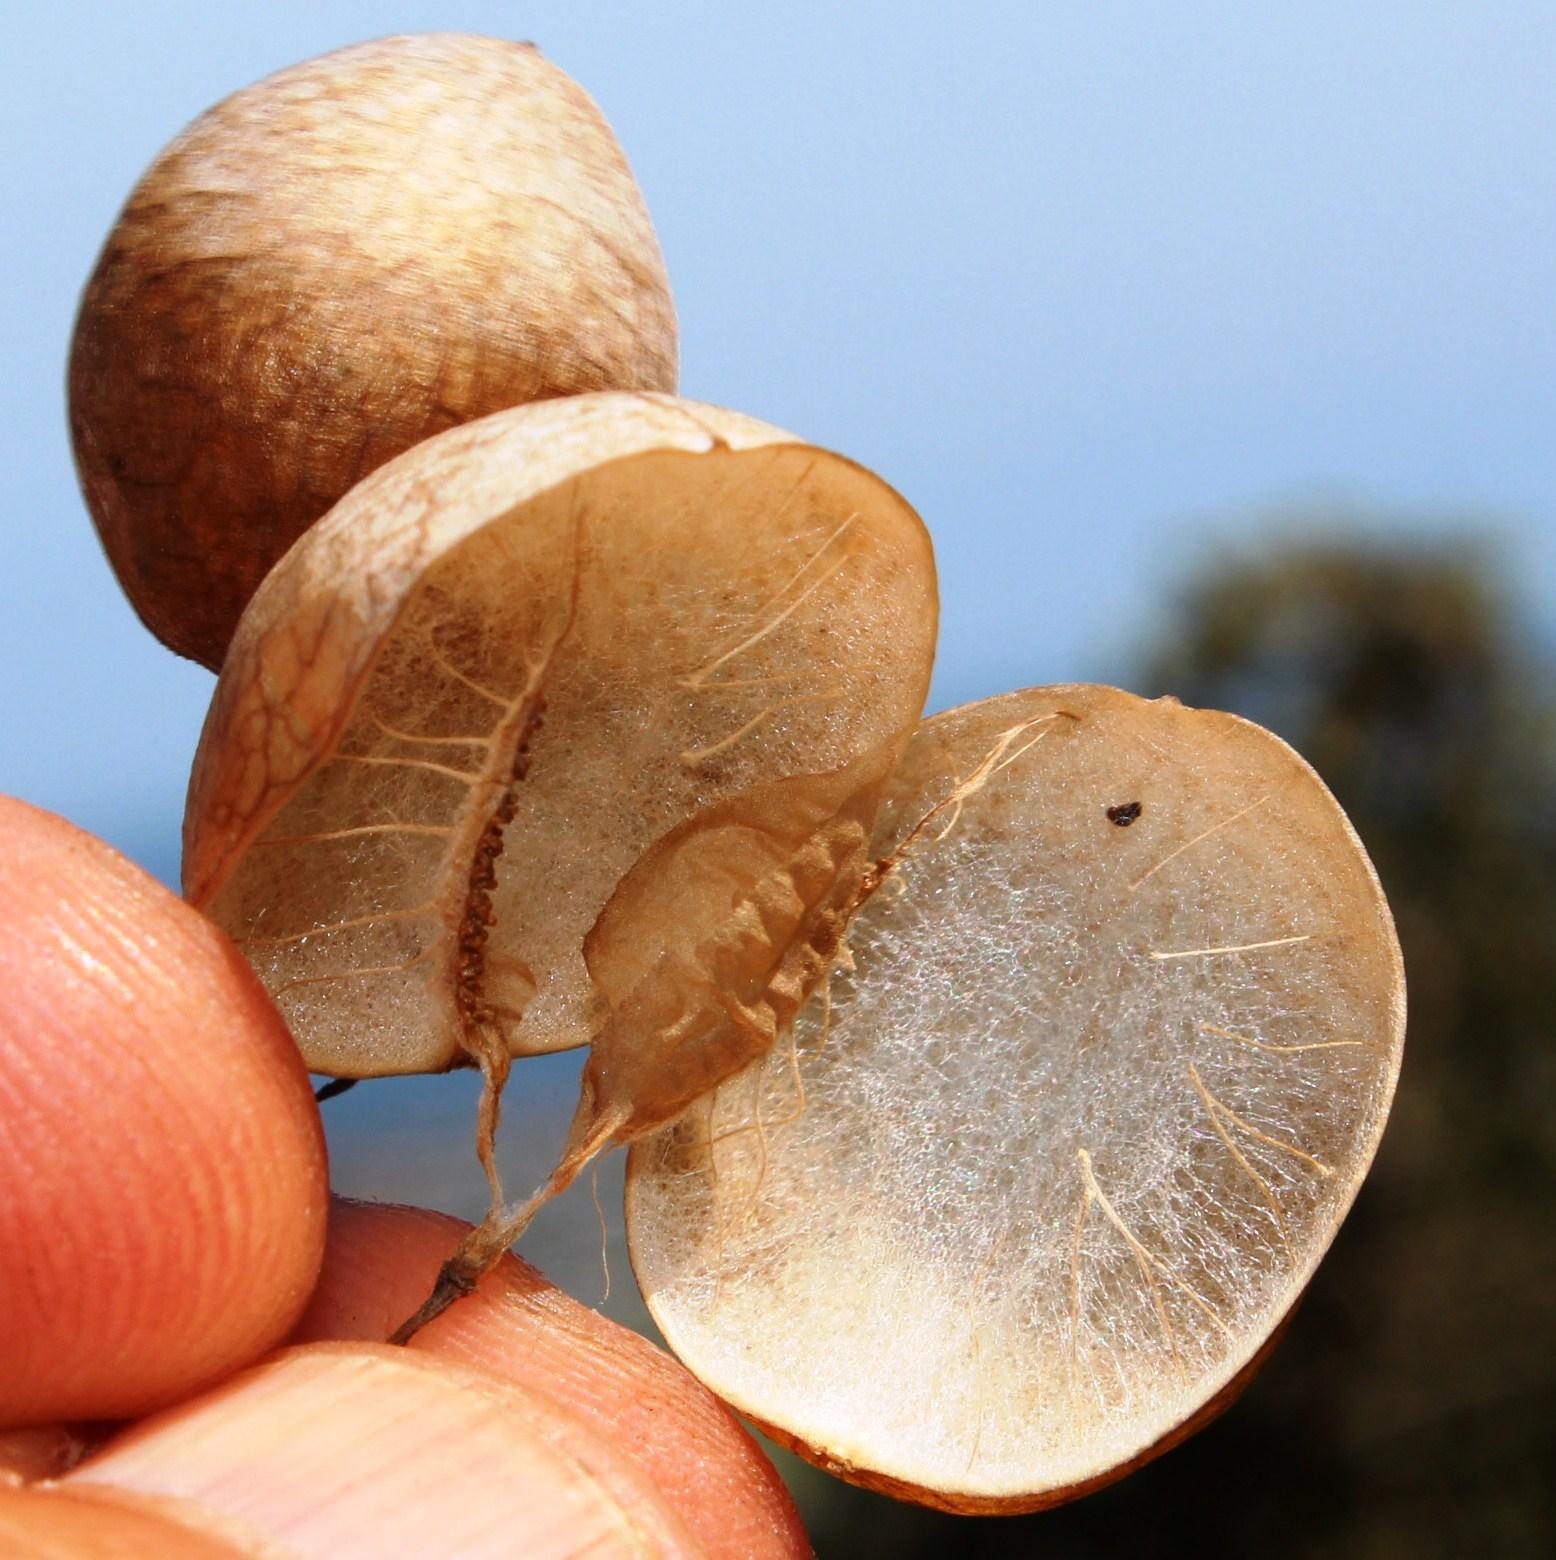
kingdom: Plantae
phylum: Tracheophyta
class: Magnoliopsida
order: Ranunculales
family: Papaveraceae
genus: Cysticapnos
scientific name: Cysticapnos vesicaria
